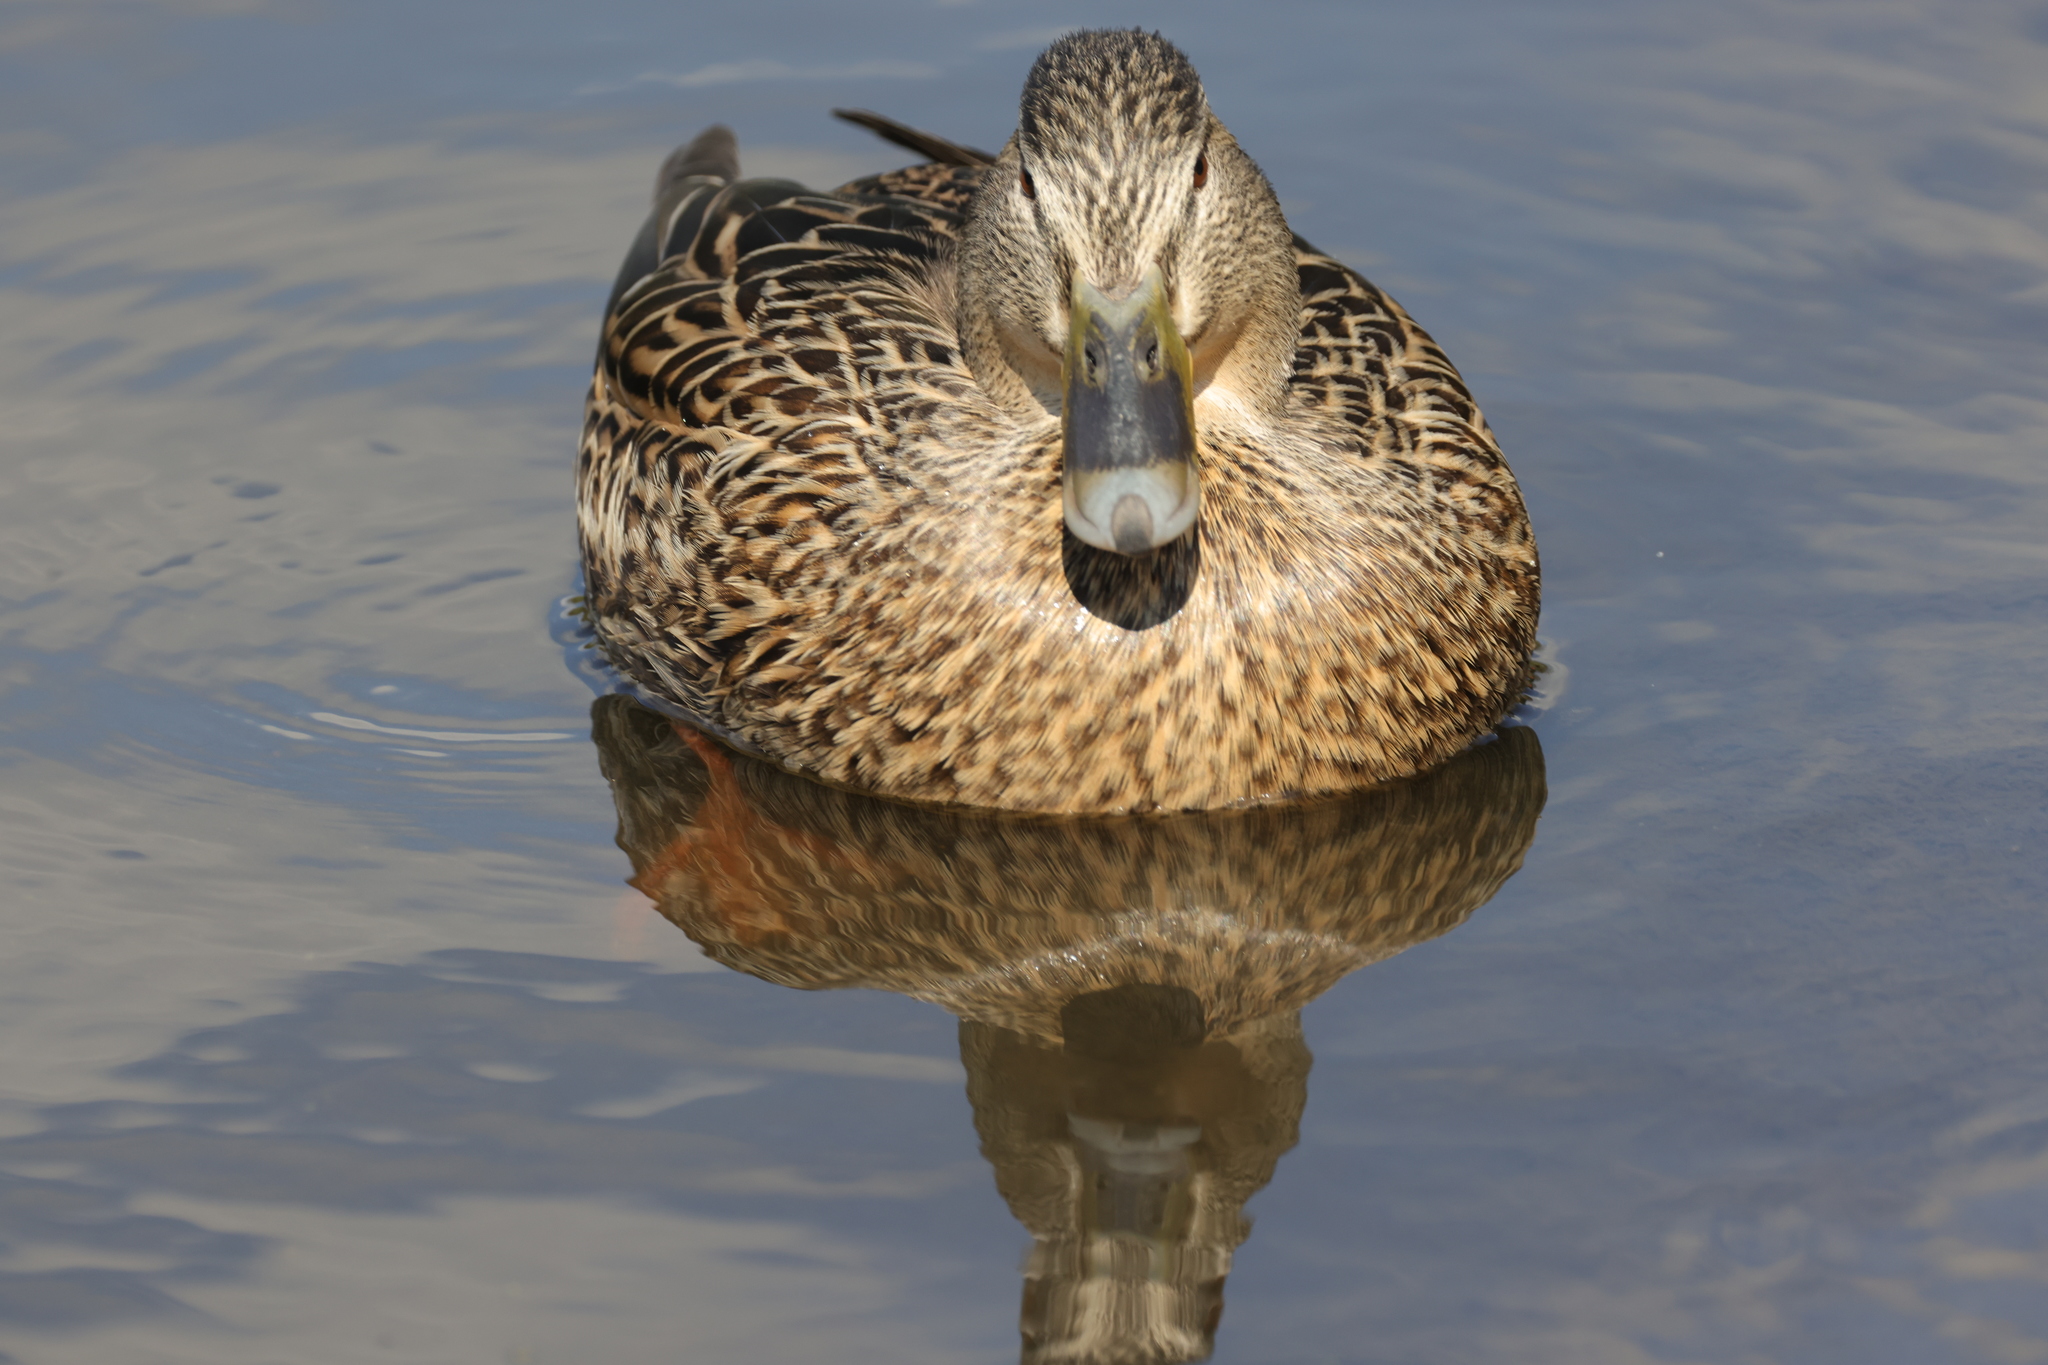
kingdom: Animalia
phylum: Chordata
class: Aves
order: Anseriformes
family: Anatidae
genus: Anas
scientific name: Anas platyrhynchos
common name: Mallard
